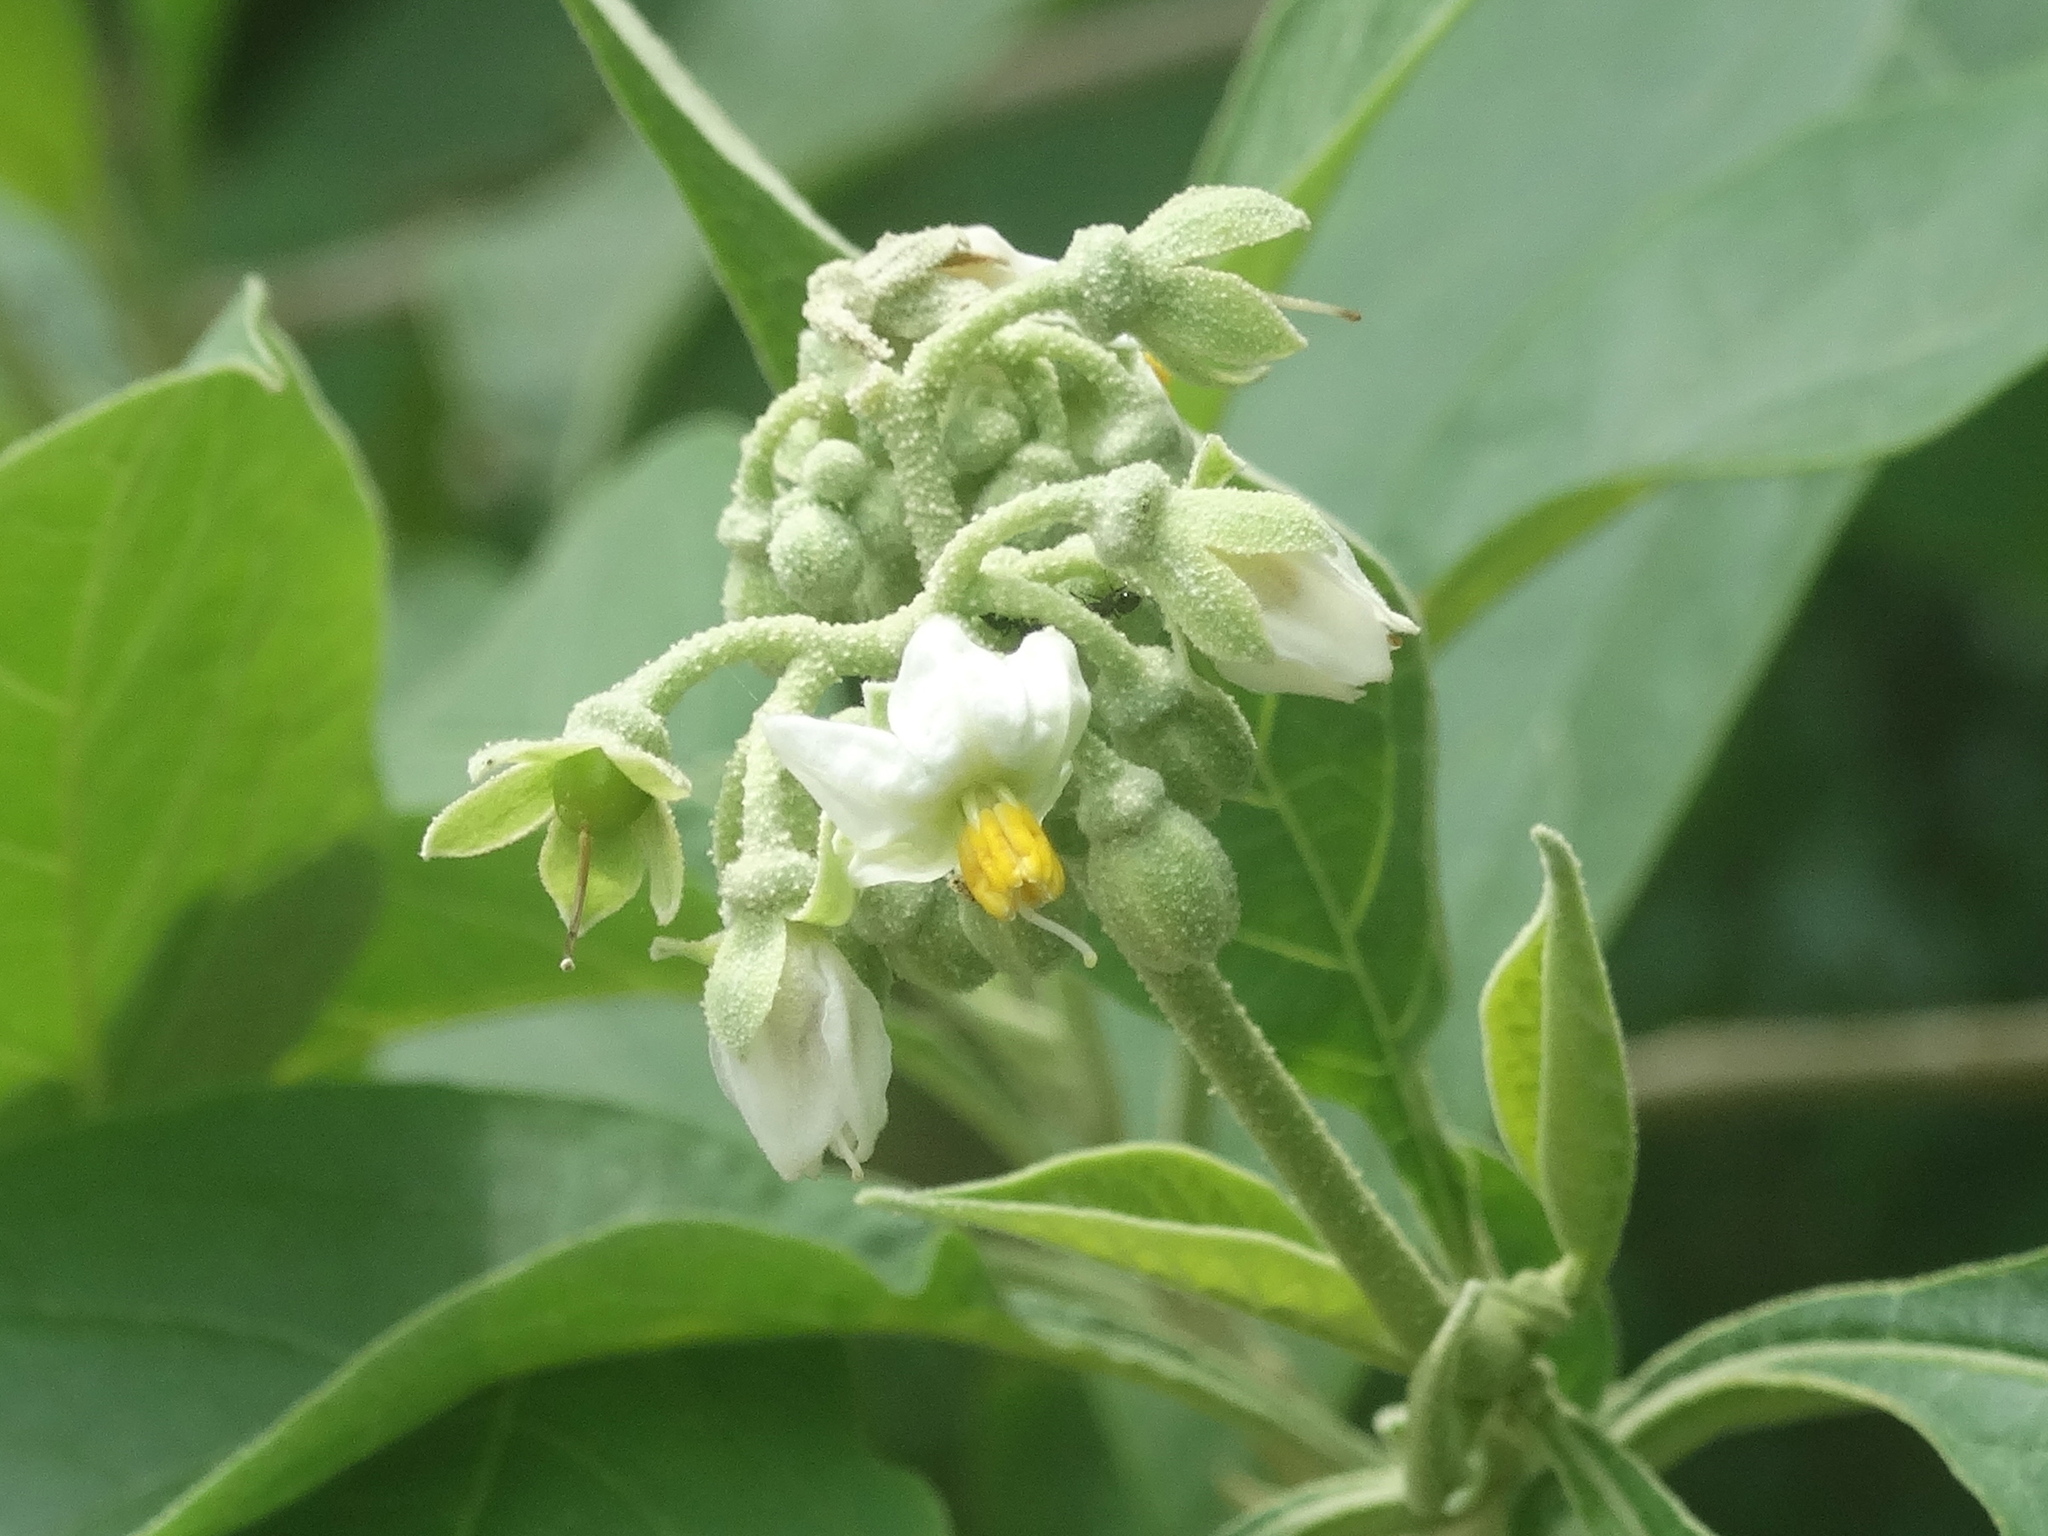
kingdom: Plantae
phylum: Tracheophyta
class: Magnoliopsida
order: Solanales
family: Solanaceae
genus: Solanum
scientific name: Solanum hazenii
